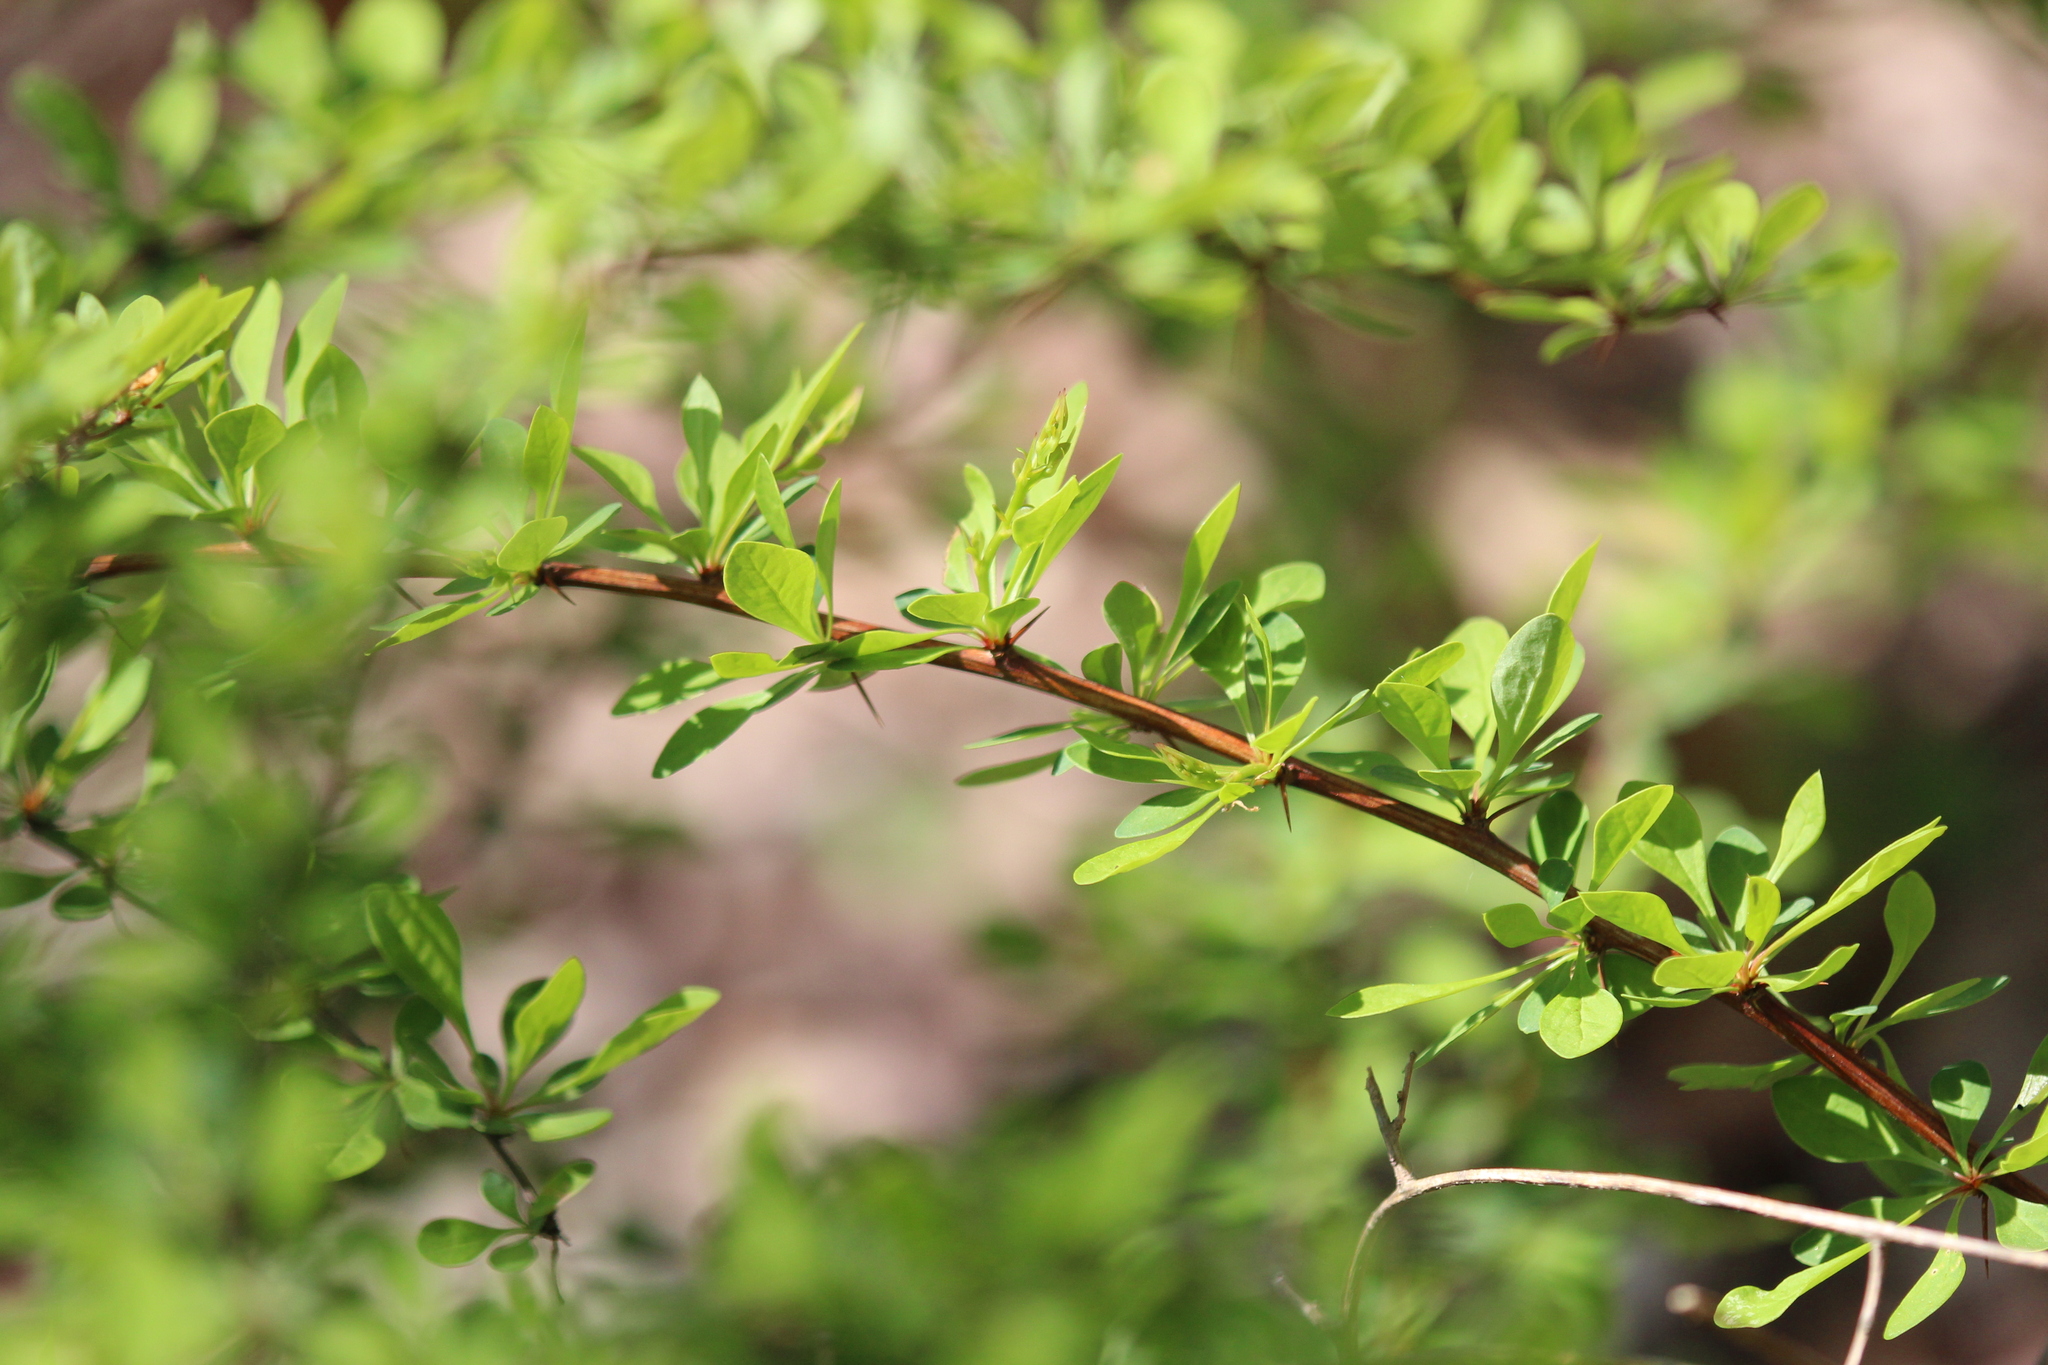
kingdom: Plantae
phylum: Tracheophyta
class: Magnoliopsida
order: Ranunculales
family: Berberidaceae
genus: Berberis
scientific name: Berberis thunbergii
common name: Japanese barberry
